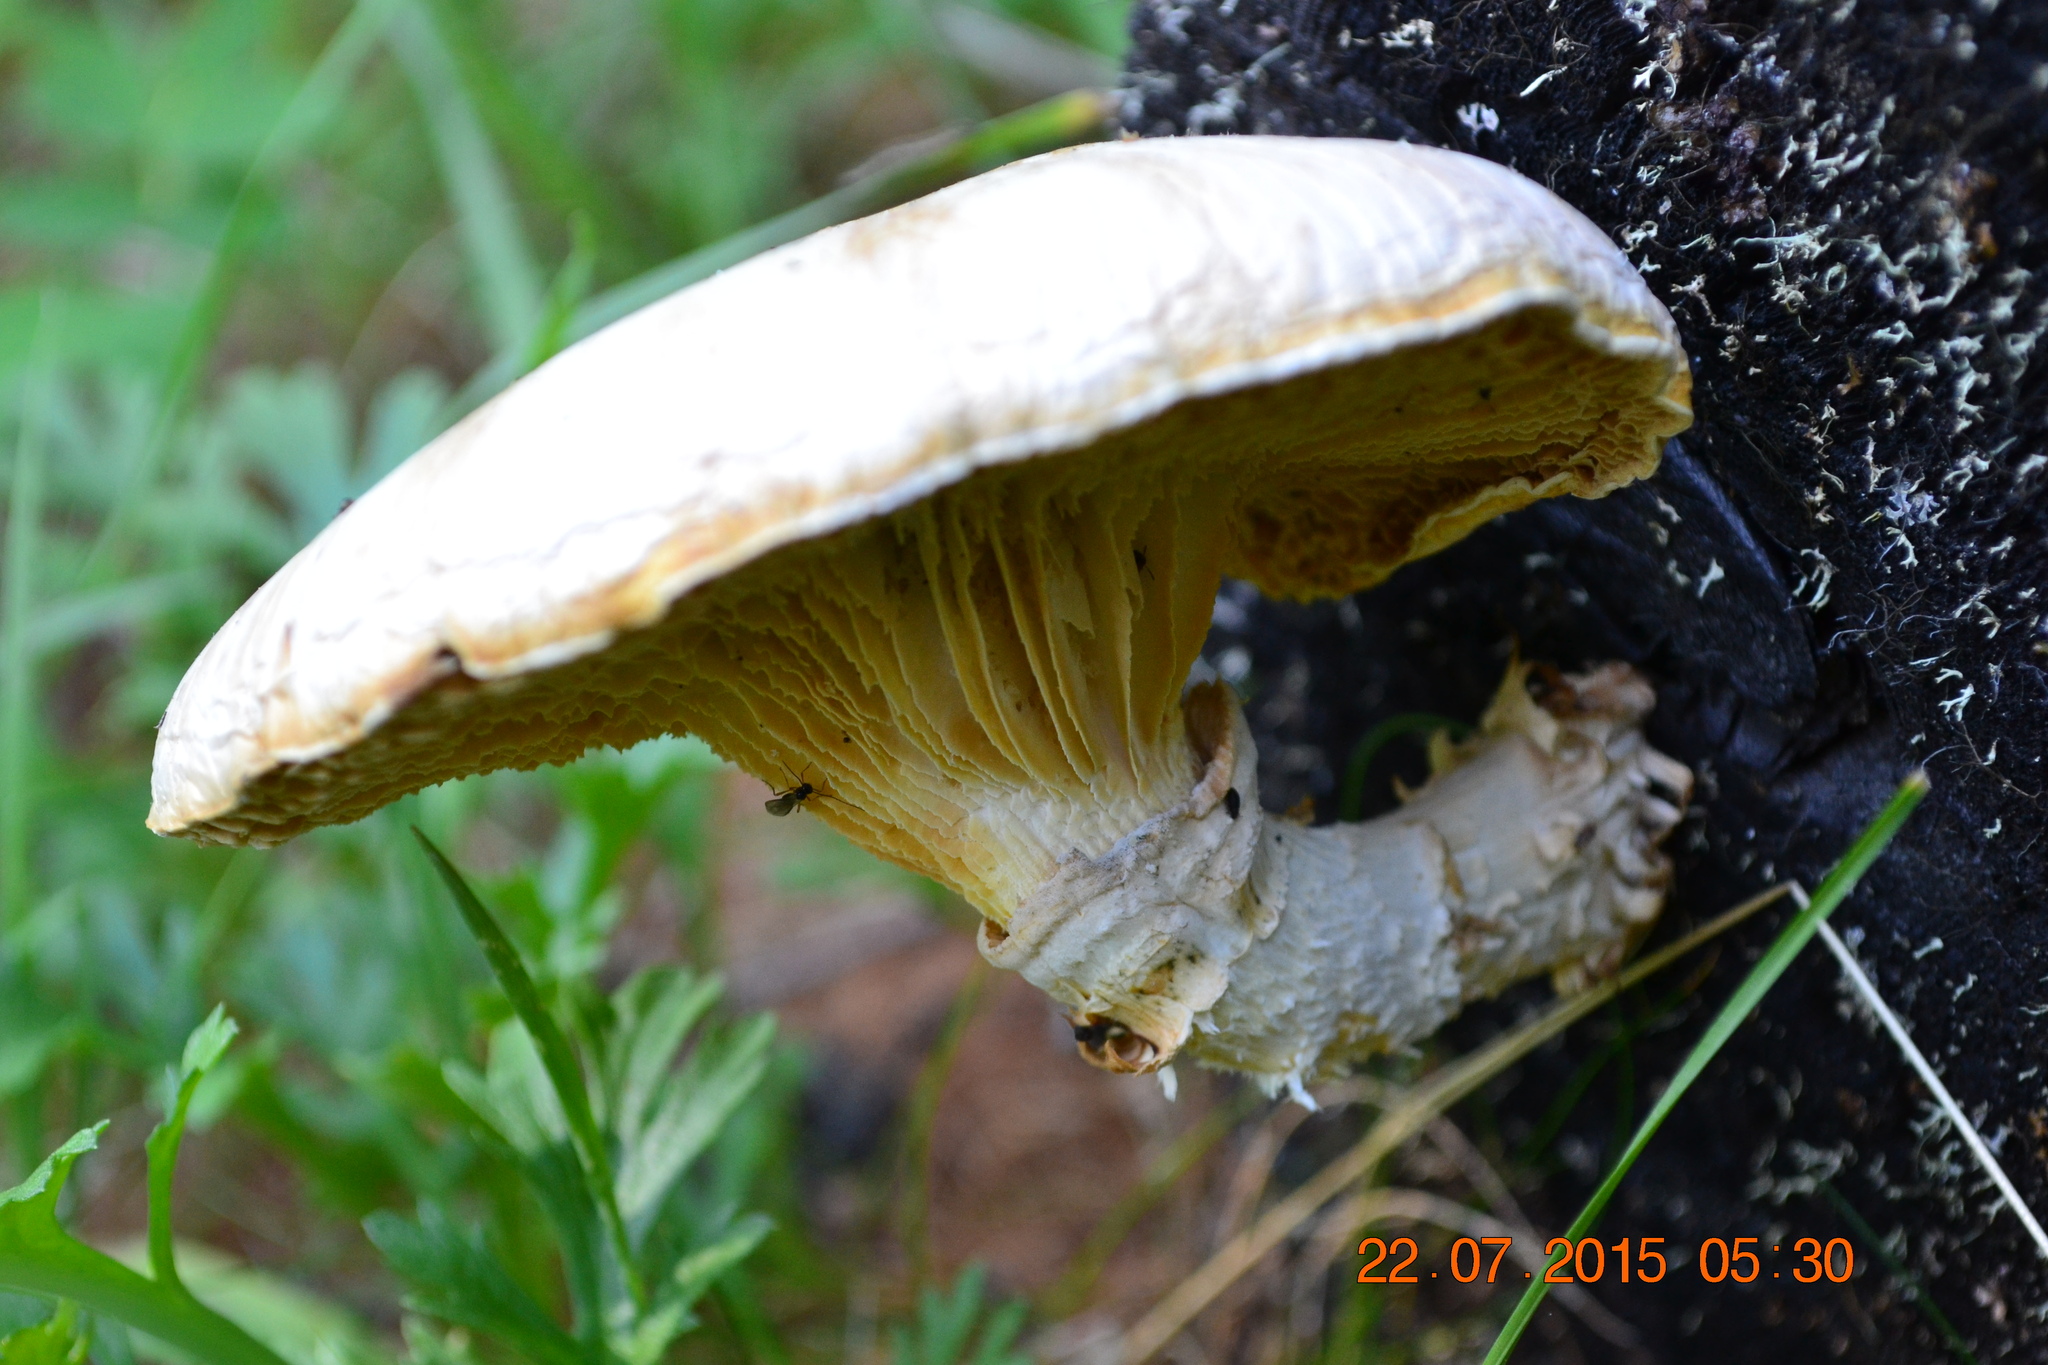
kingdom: Fungi
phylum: Basidiomycota
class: Agaricomycetes
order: Gloeophyllales
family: Gloeophyllaceae
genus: Neolentinus
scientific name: Neolentinus lepideus
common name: Scaly sawgill
